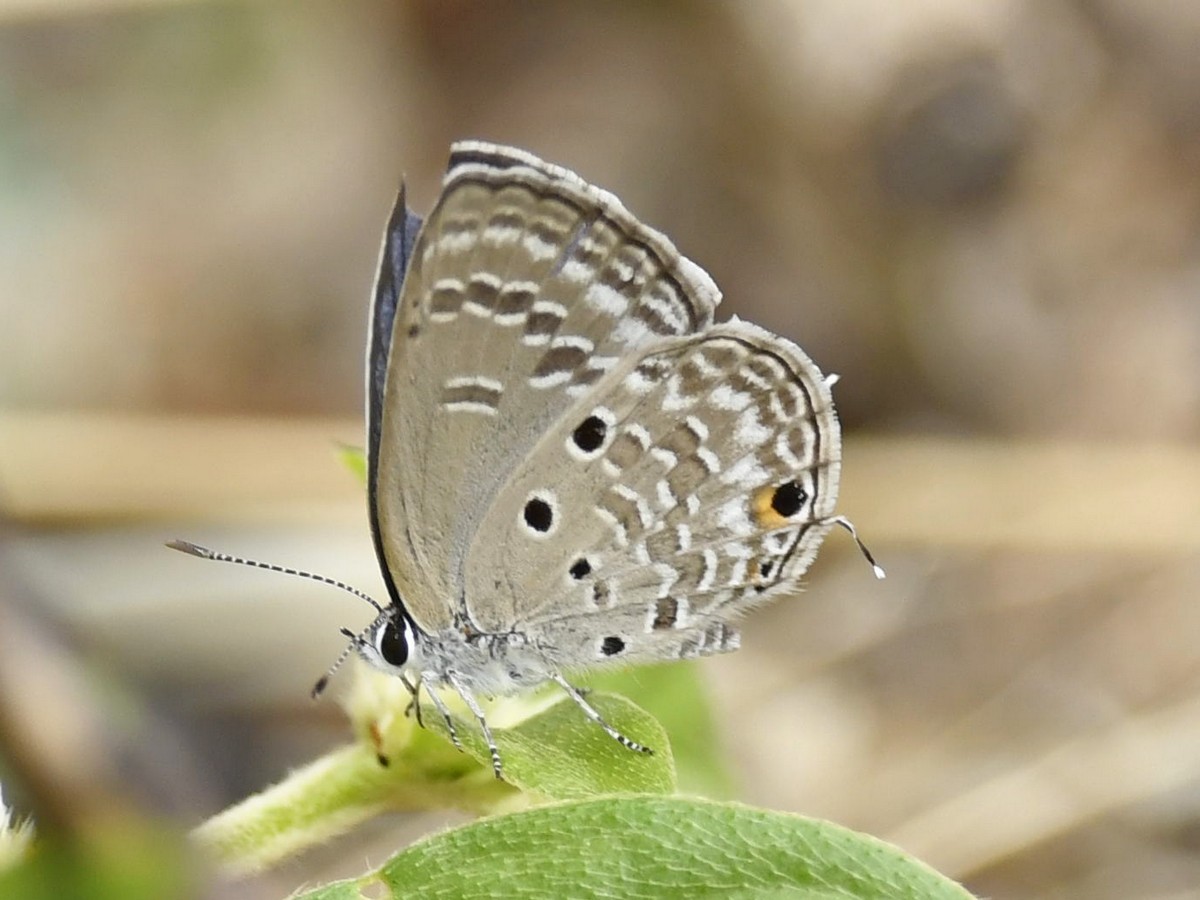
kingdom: Animalia
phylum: Arthropoda
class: Insecta
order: Lepidoptera
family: Lycaenidae
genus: Luthrodes
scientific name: Luthrodes pandava
